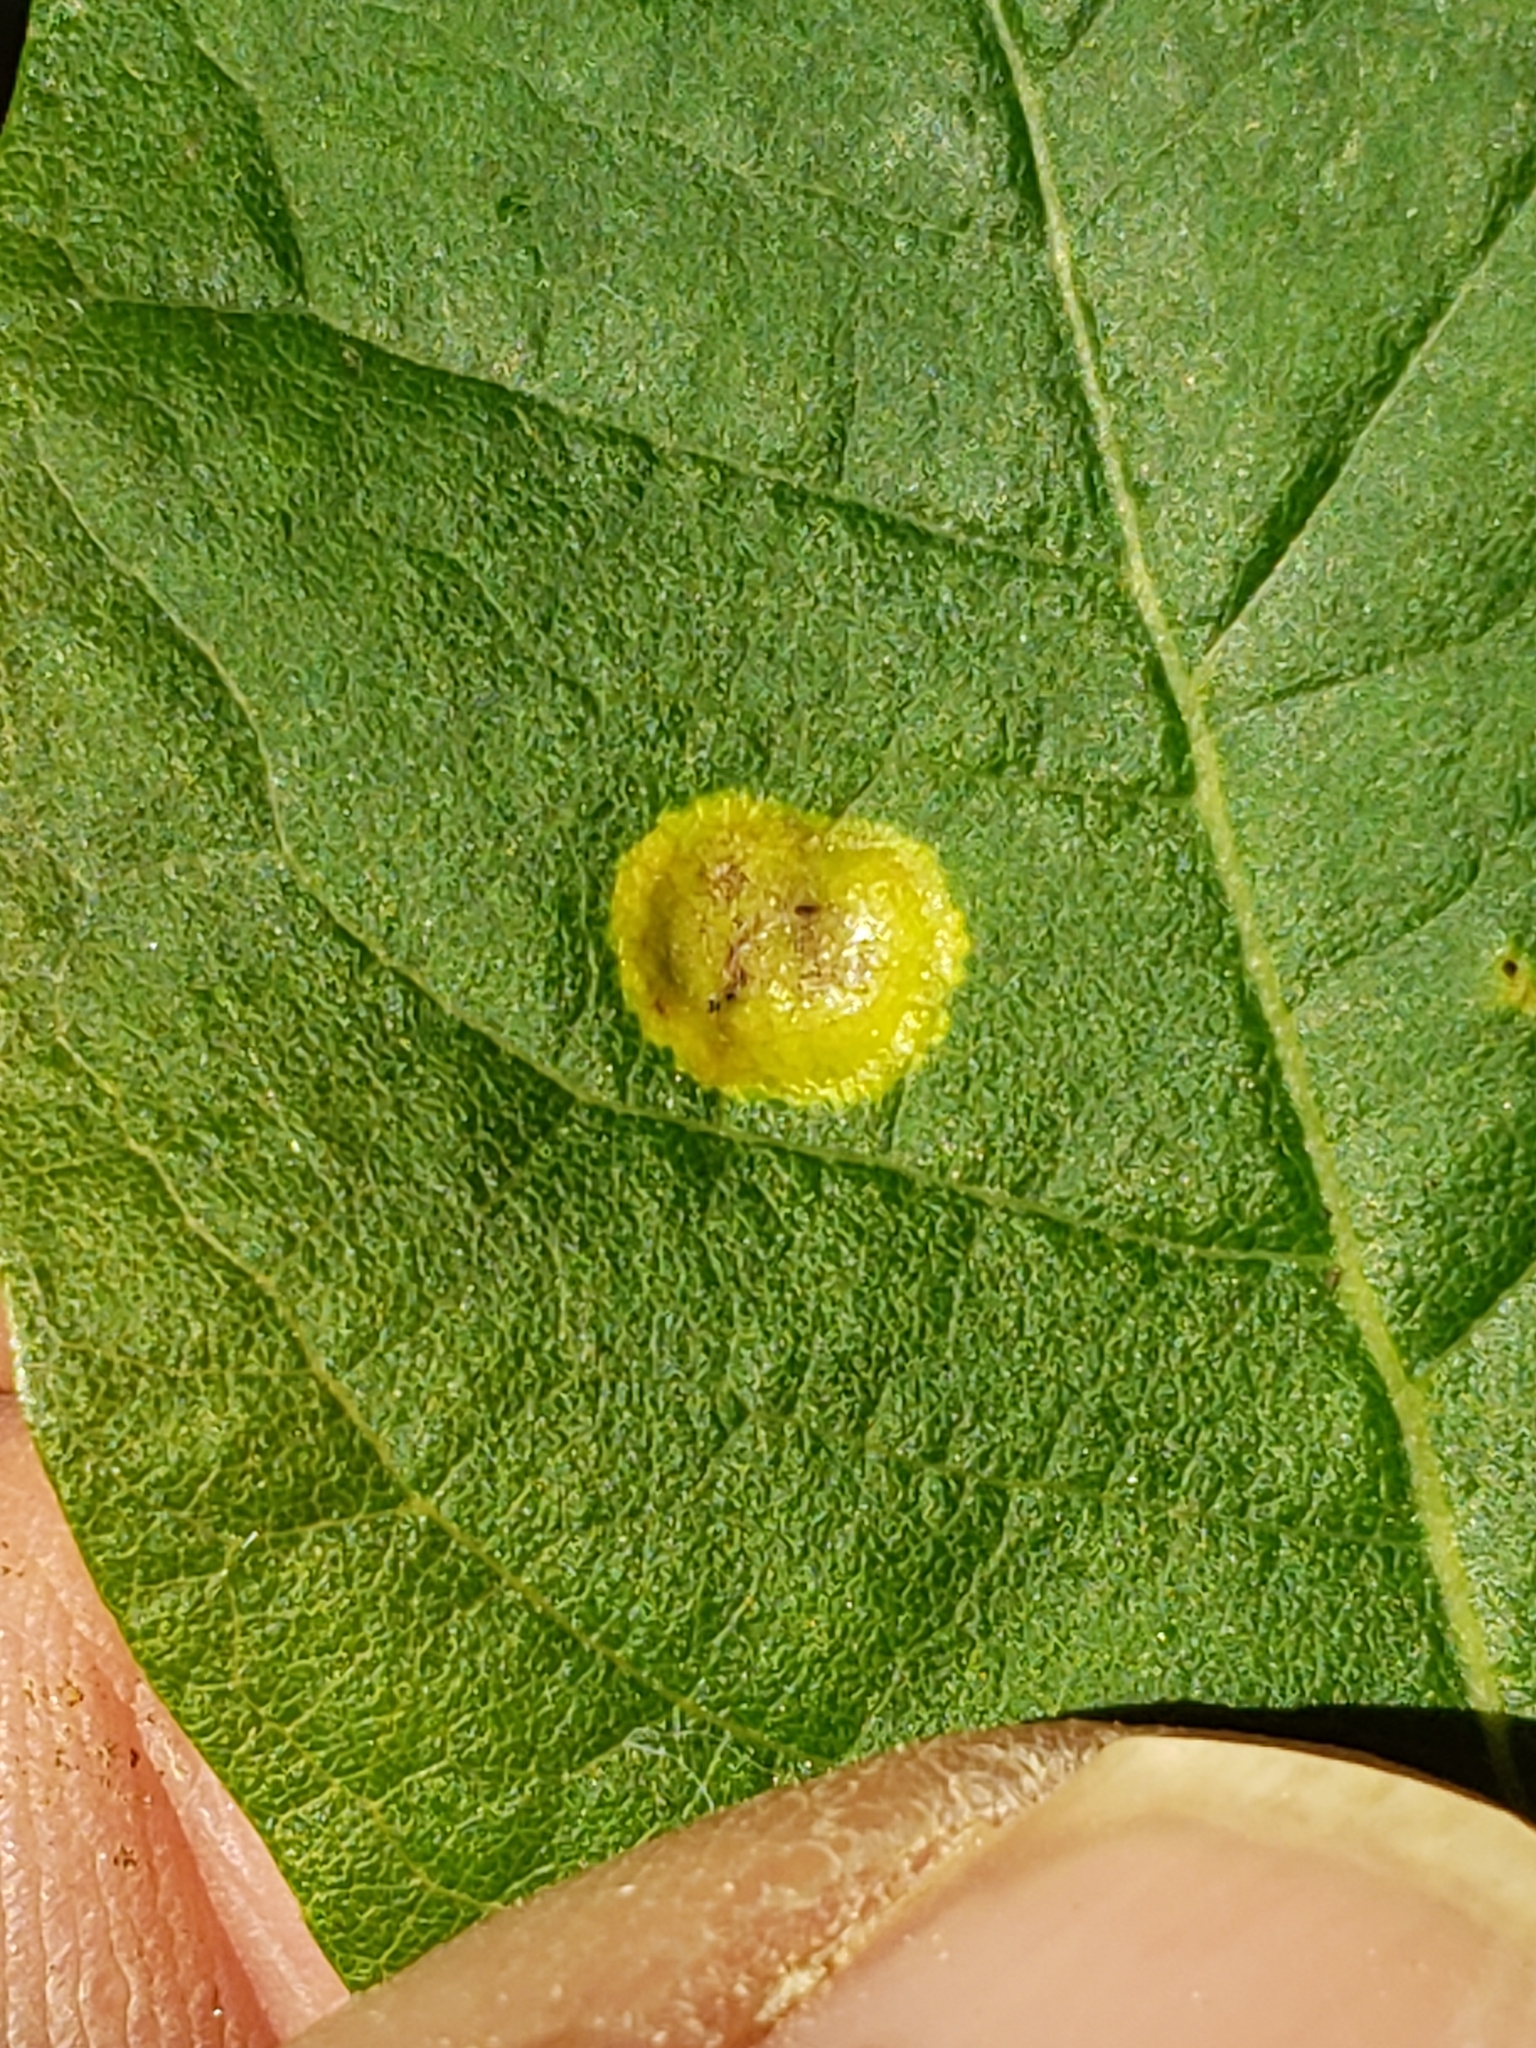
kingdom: Fungi
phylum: Basidiomycota
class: Exobasidiomycetes
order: Exobasidiales
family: Exobasidiaceae
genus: Exobasidium
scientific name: Exobasidium vaccinii
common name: Cowberry redleaf
